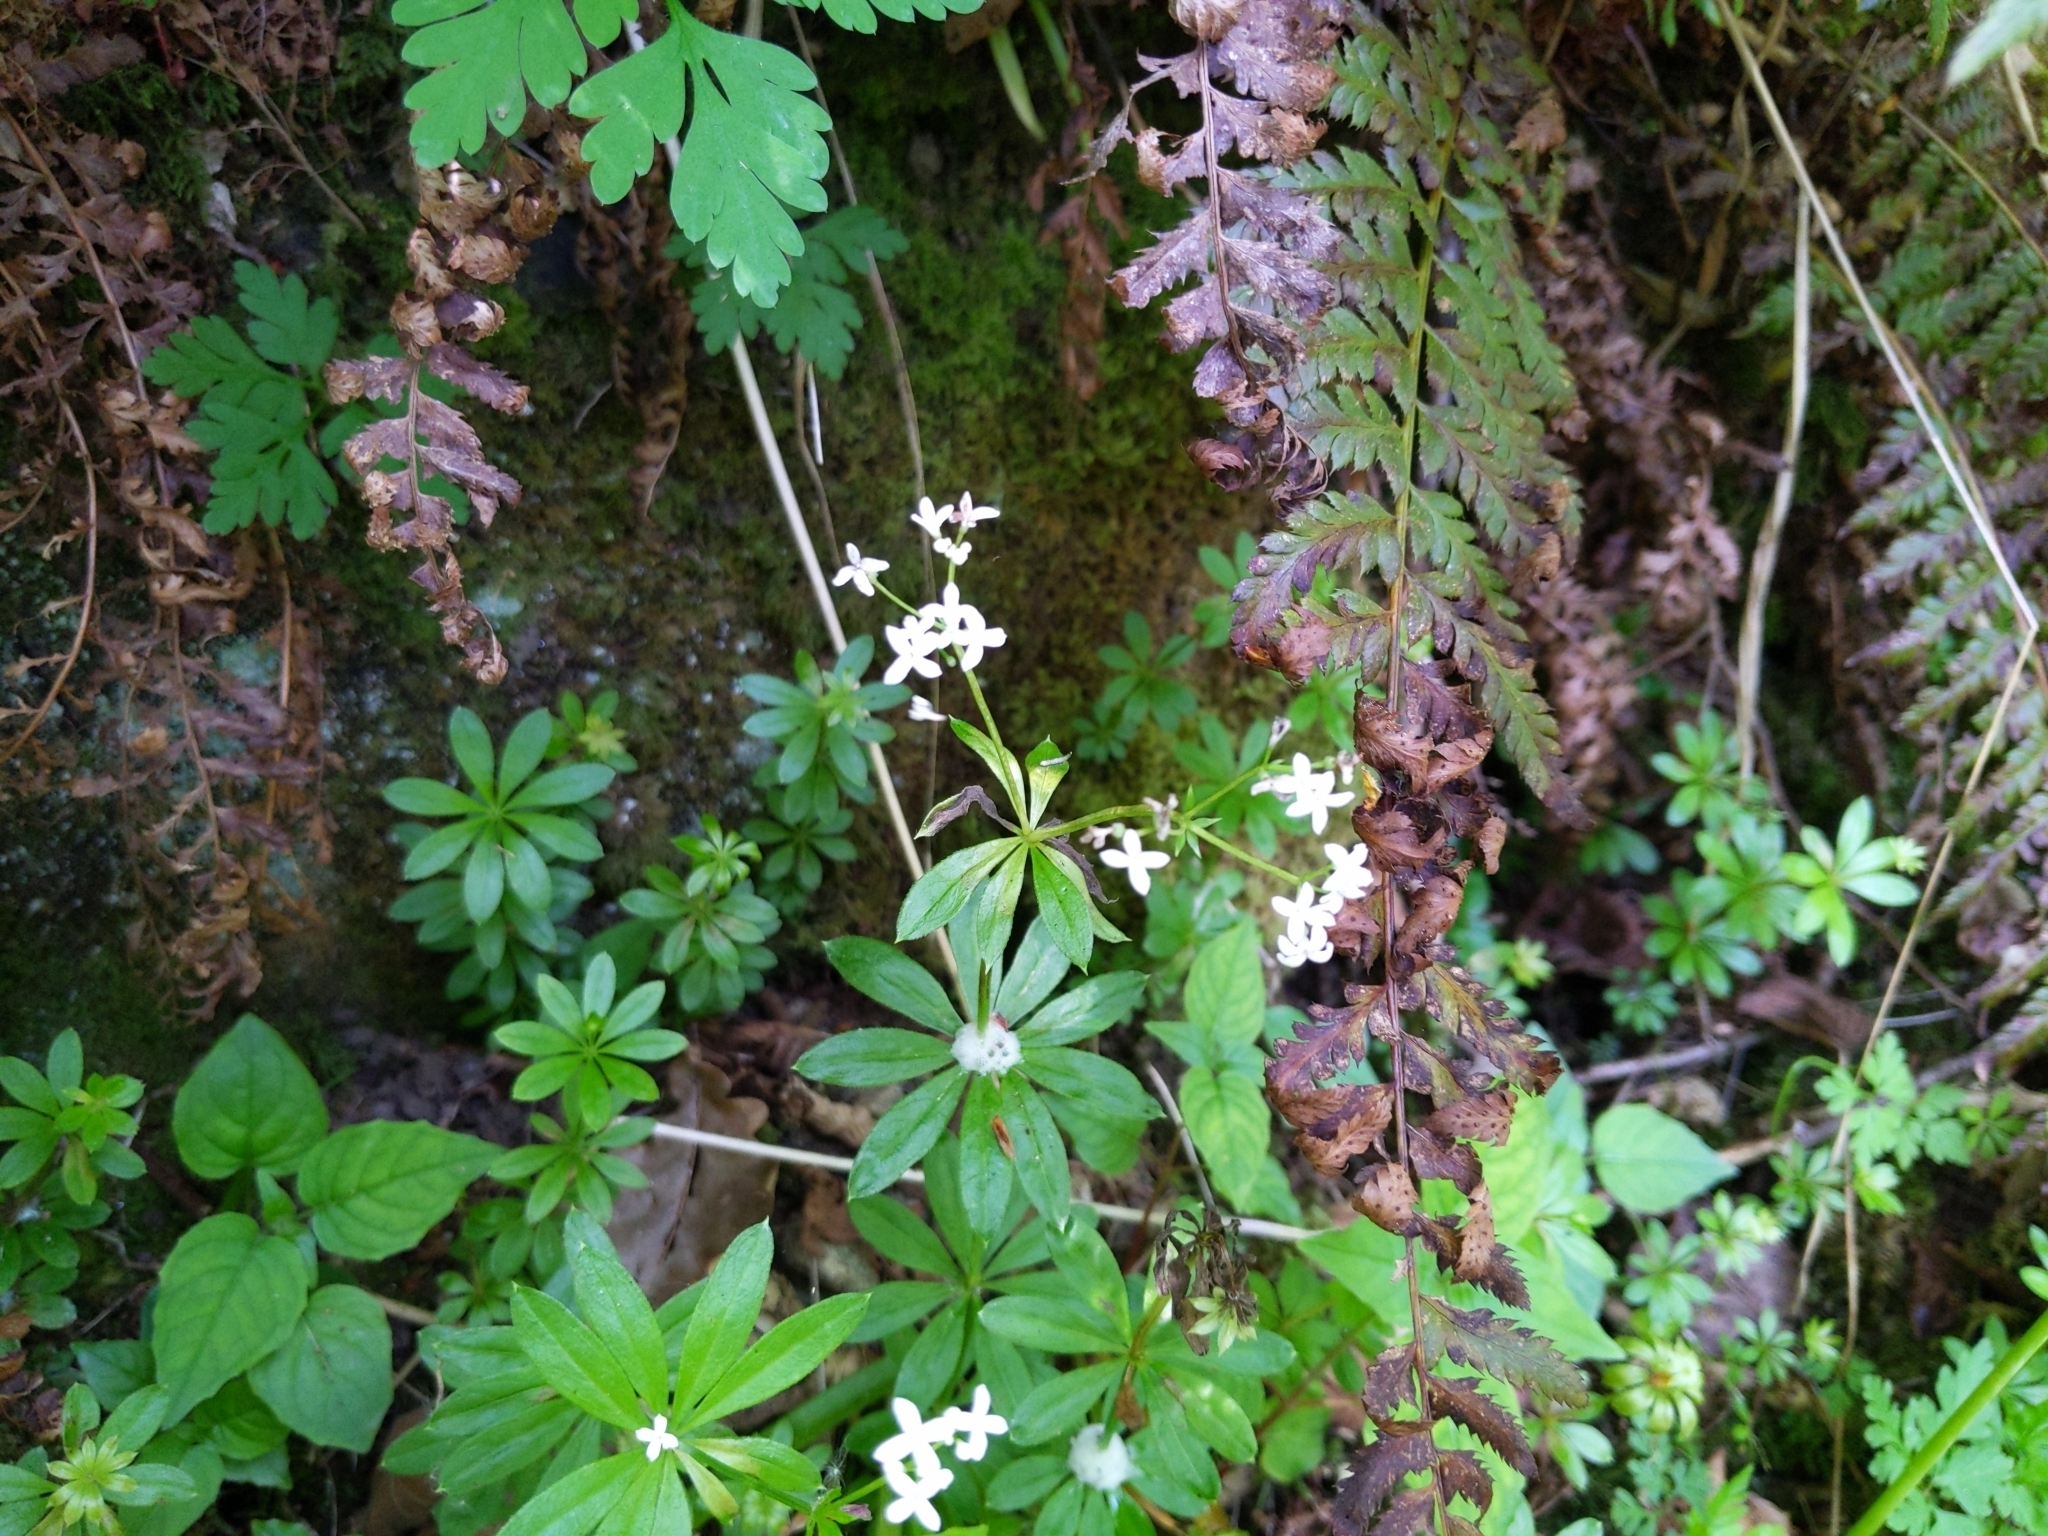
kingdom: Plantae
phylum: Tracheophyta
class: Magnoliopsida
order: Gentianales
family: Rubiaceae
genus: Galium
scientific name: Galium odoratum
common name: Sweet woodruff
